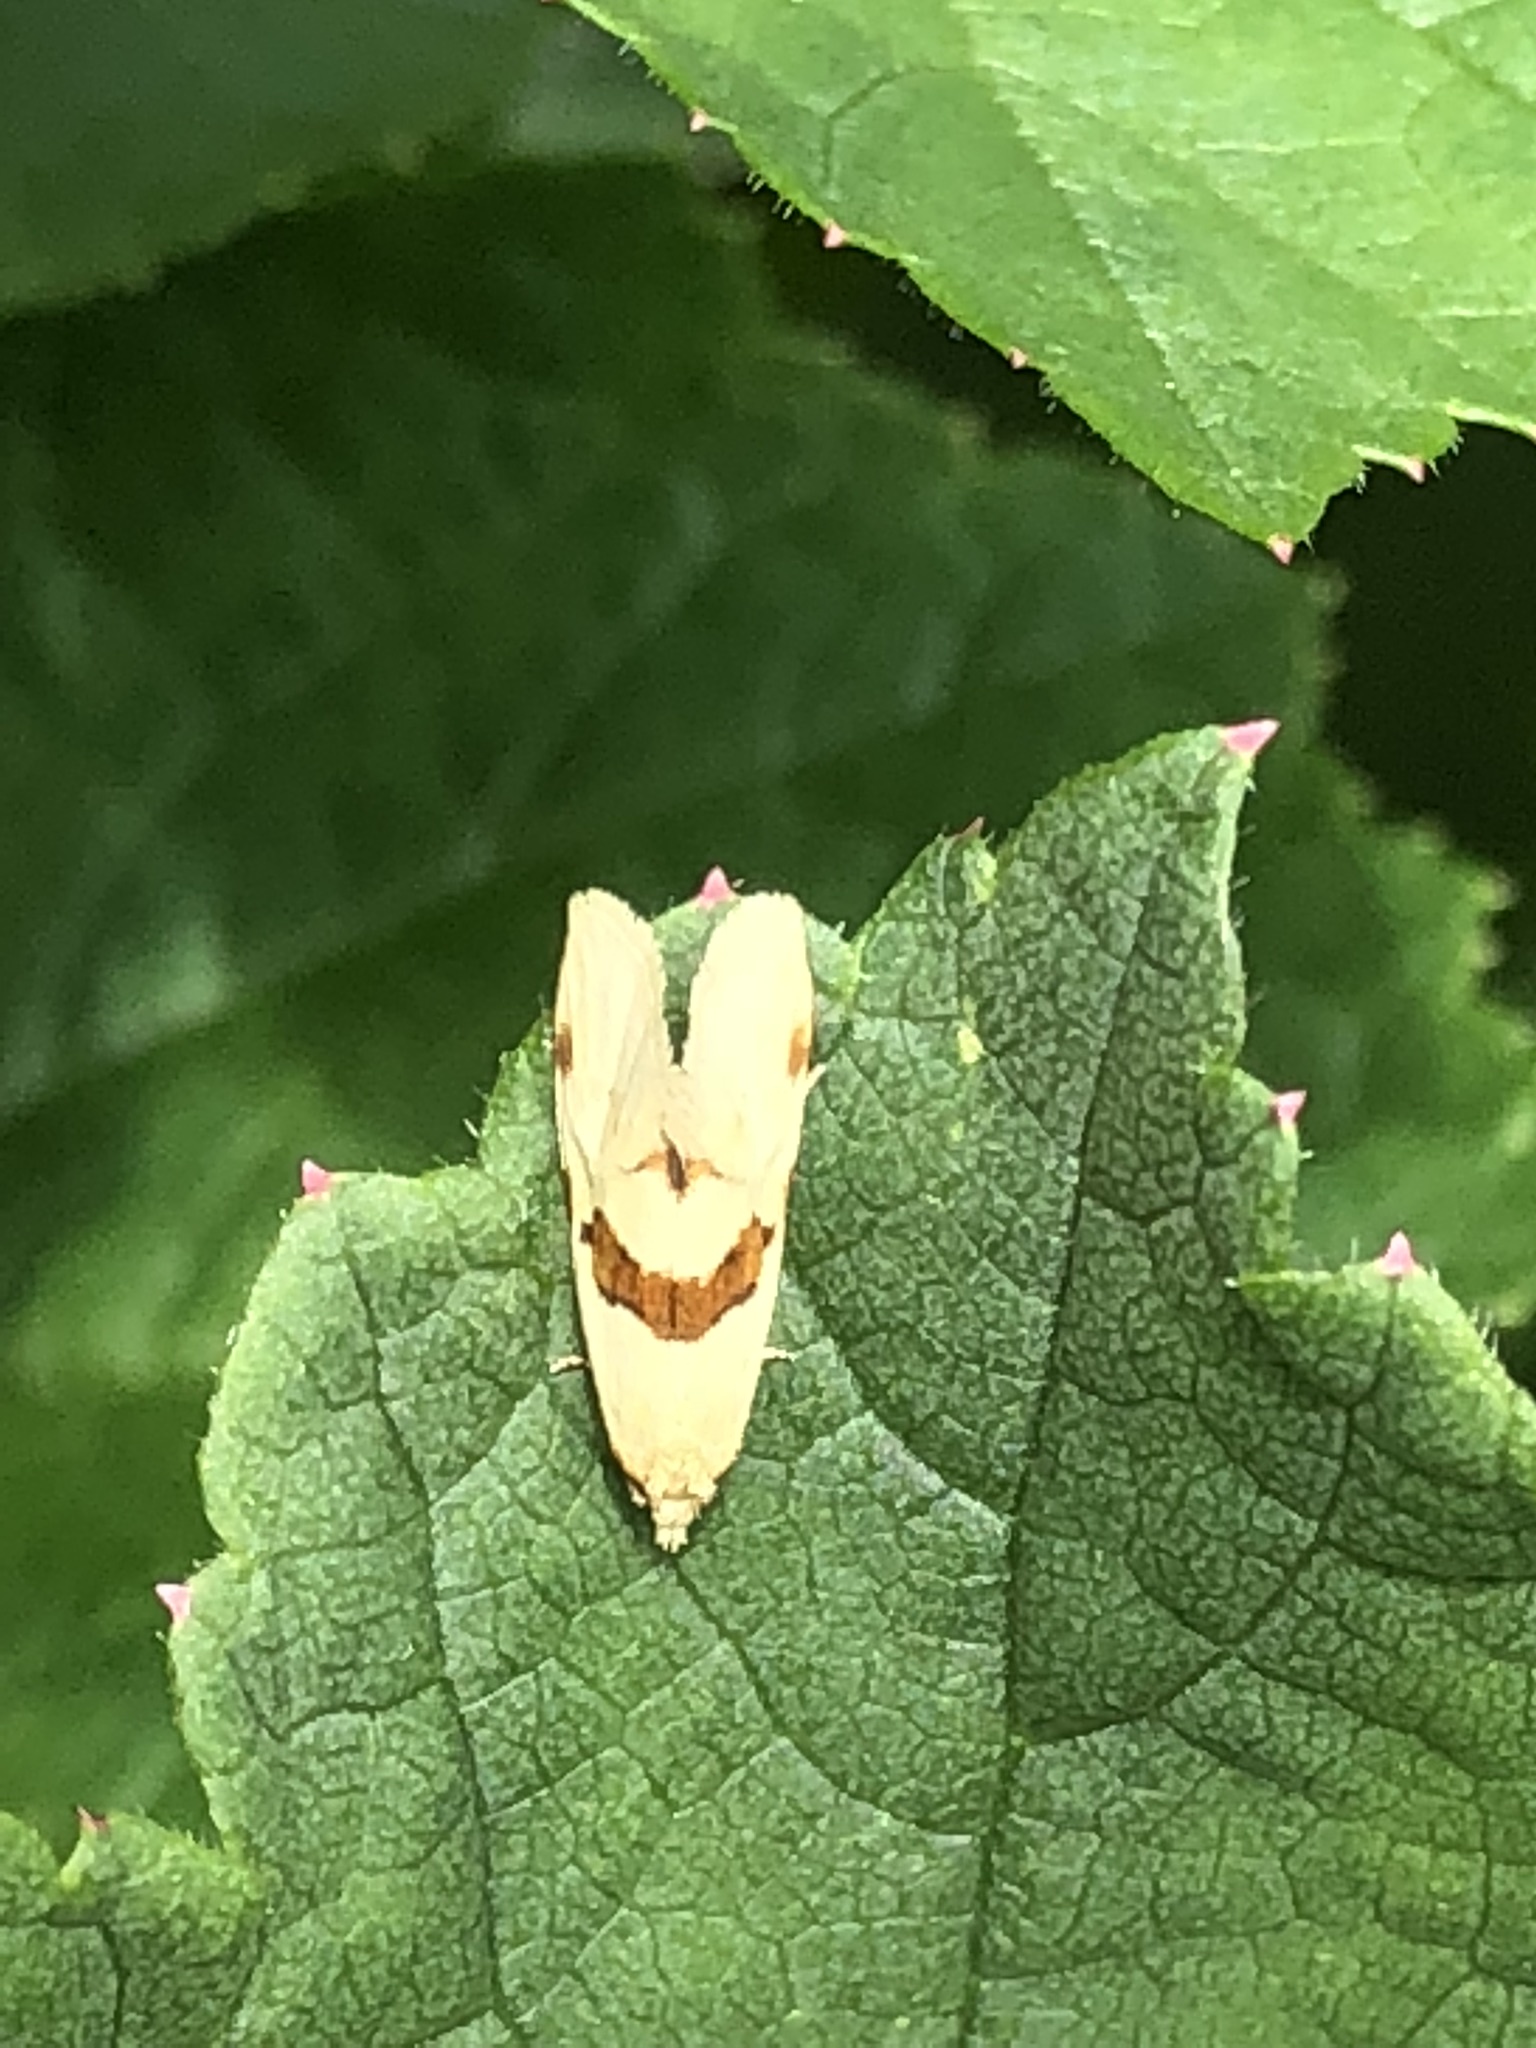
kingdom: Animalia
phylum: Arthropoda
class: Insecta
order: Lepidoptera
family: Tortricidae
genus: Aethes
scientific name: Aethes smeathmanniana
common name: Yarrow conch
